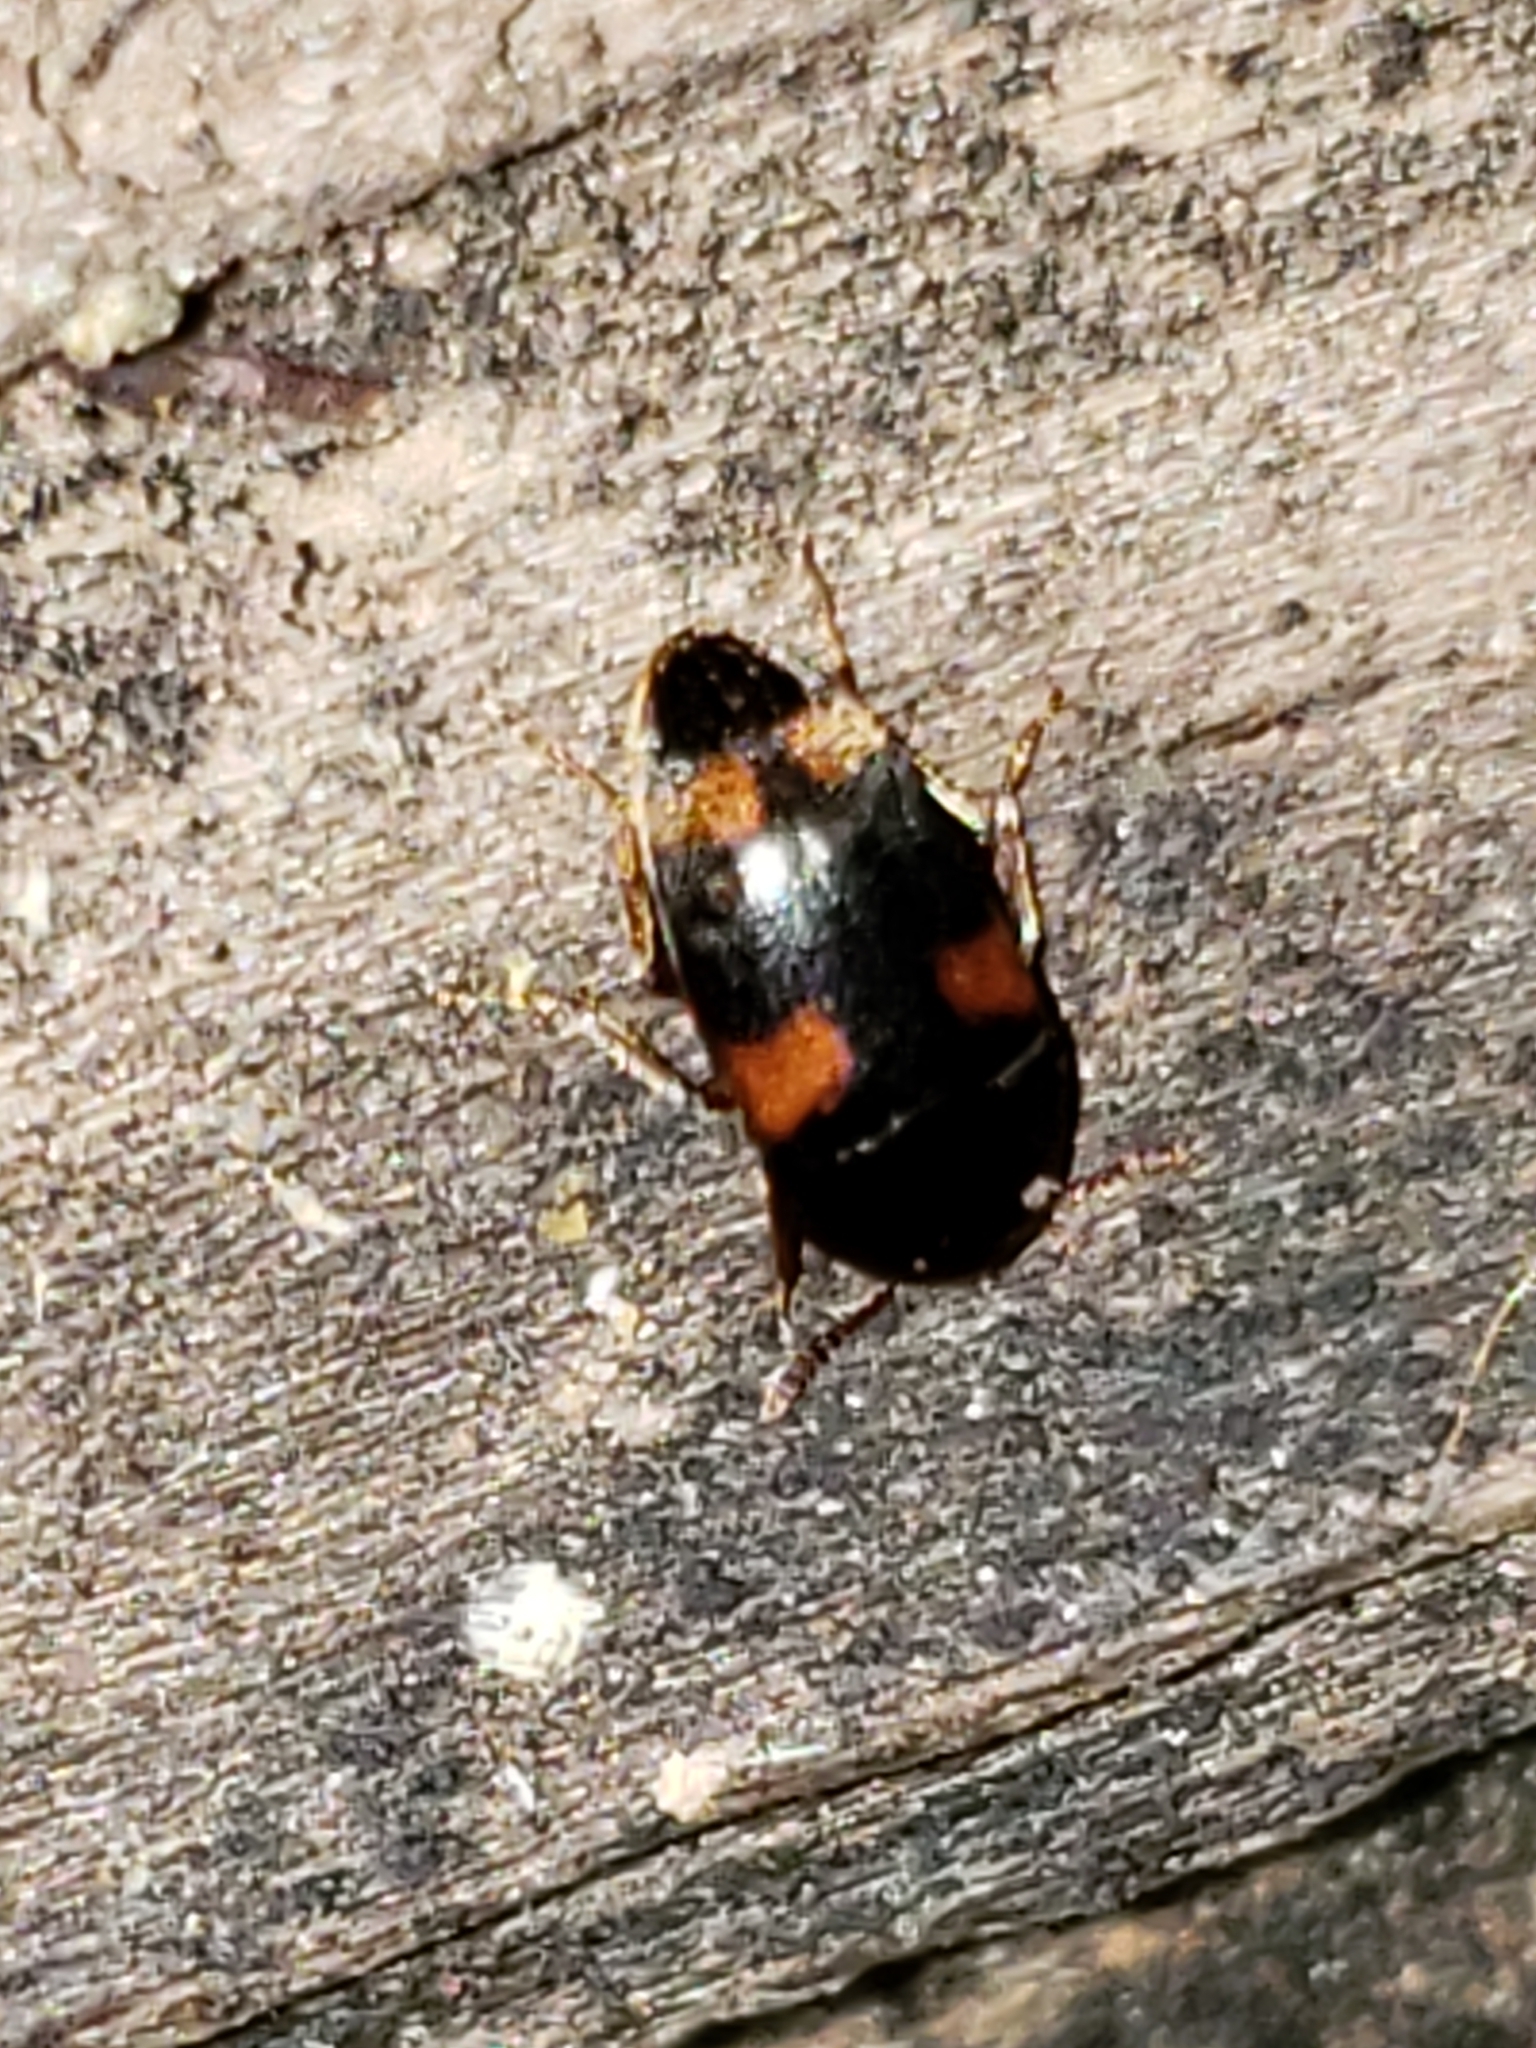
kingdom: Animalia
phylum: Arthropoda
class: Insecta
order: Coleoptera
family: Tetratomidae
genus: Holostrophus
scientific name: Holostrophus bifasciatus
